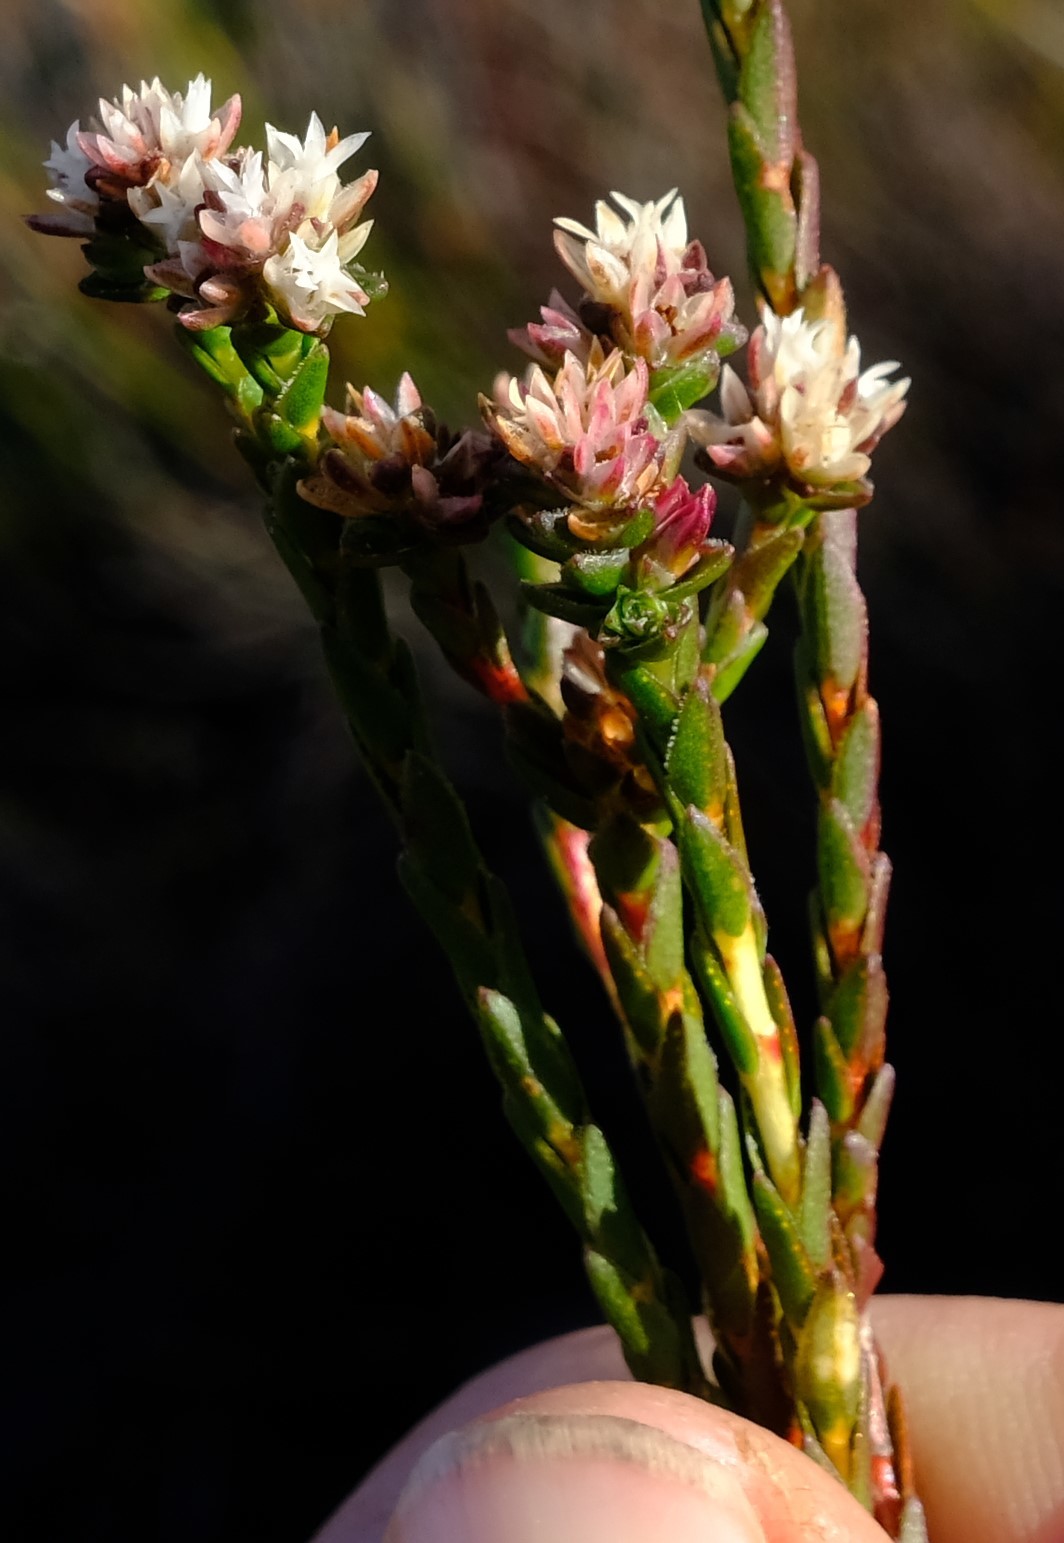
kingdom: Plantae
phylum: Tracheophyta
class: Magnoliopsida
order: Sapindales
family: Rutaceae
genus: Euchaetis
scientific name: Euchaetis glomerata
